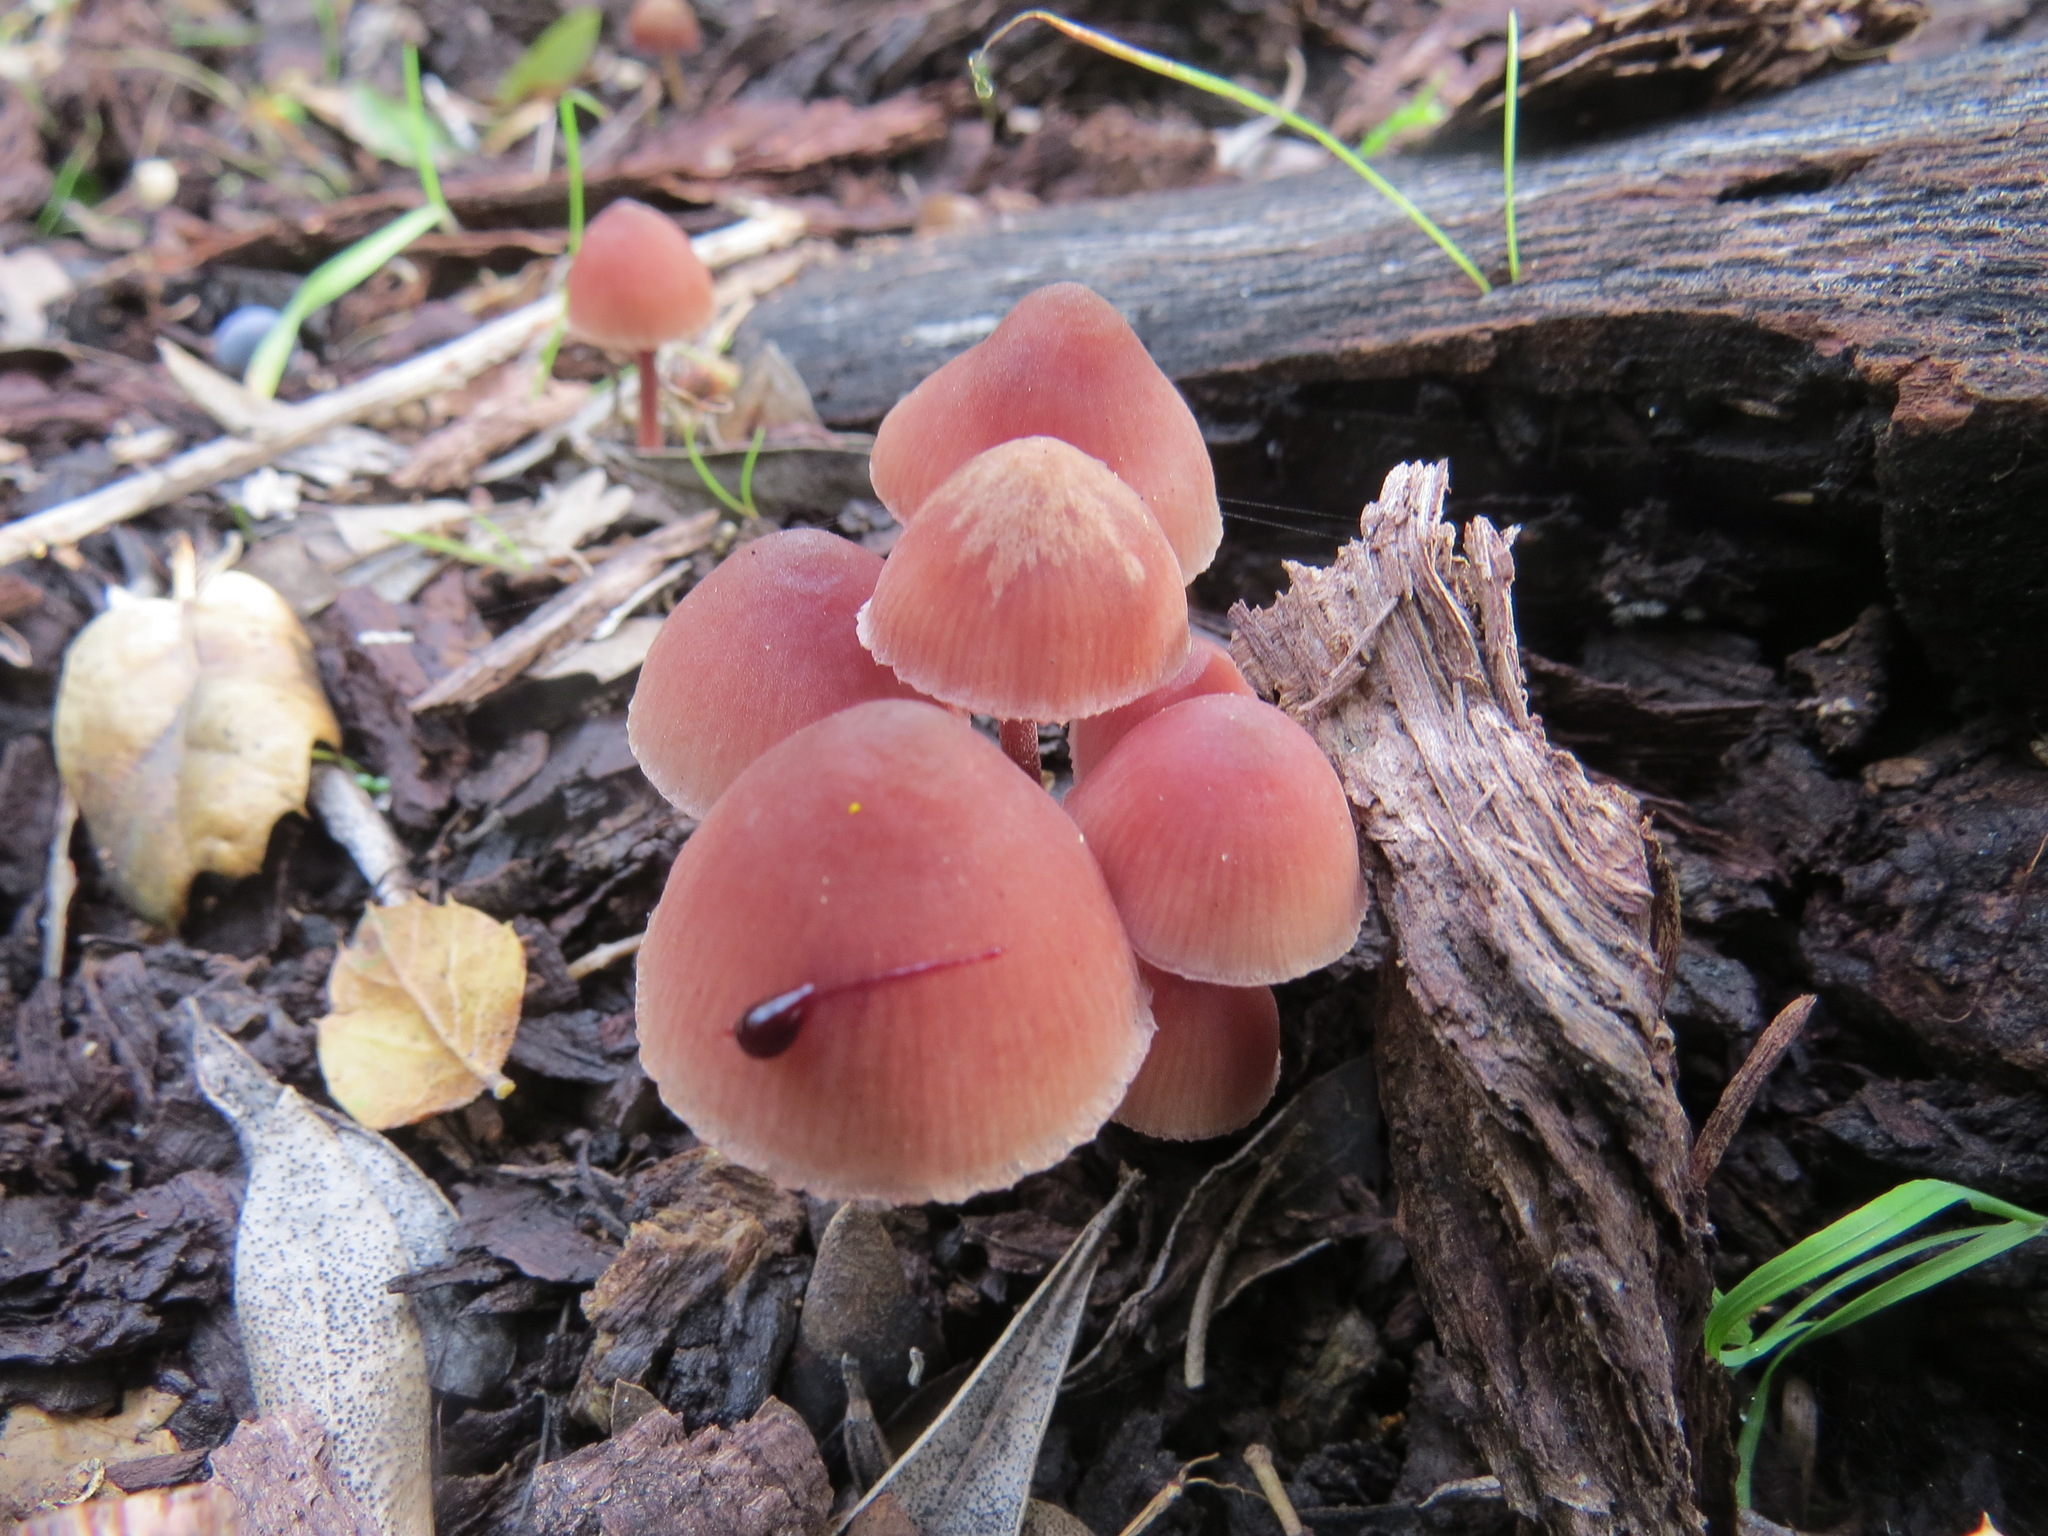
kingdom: Fungi
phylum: Basidiomycota
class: Agaricomycetes
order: Agaricales
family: Mycenaceae
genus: Mycena
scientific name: Mycena haematopus
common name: Burgundydrop bonnet
